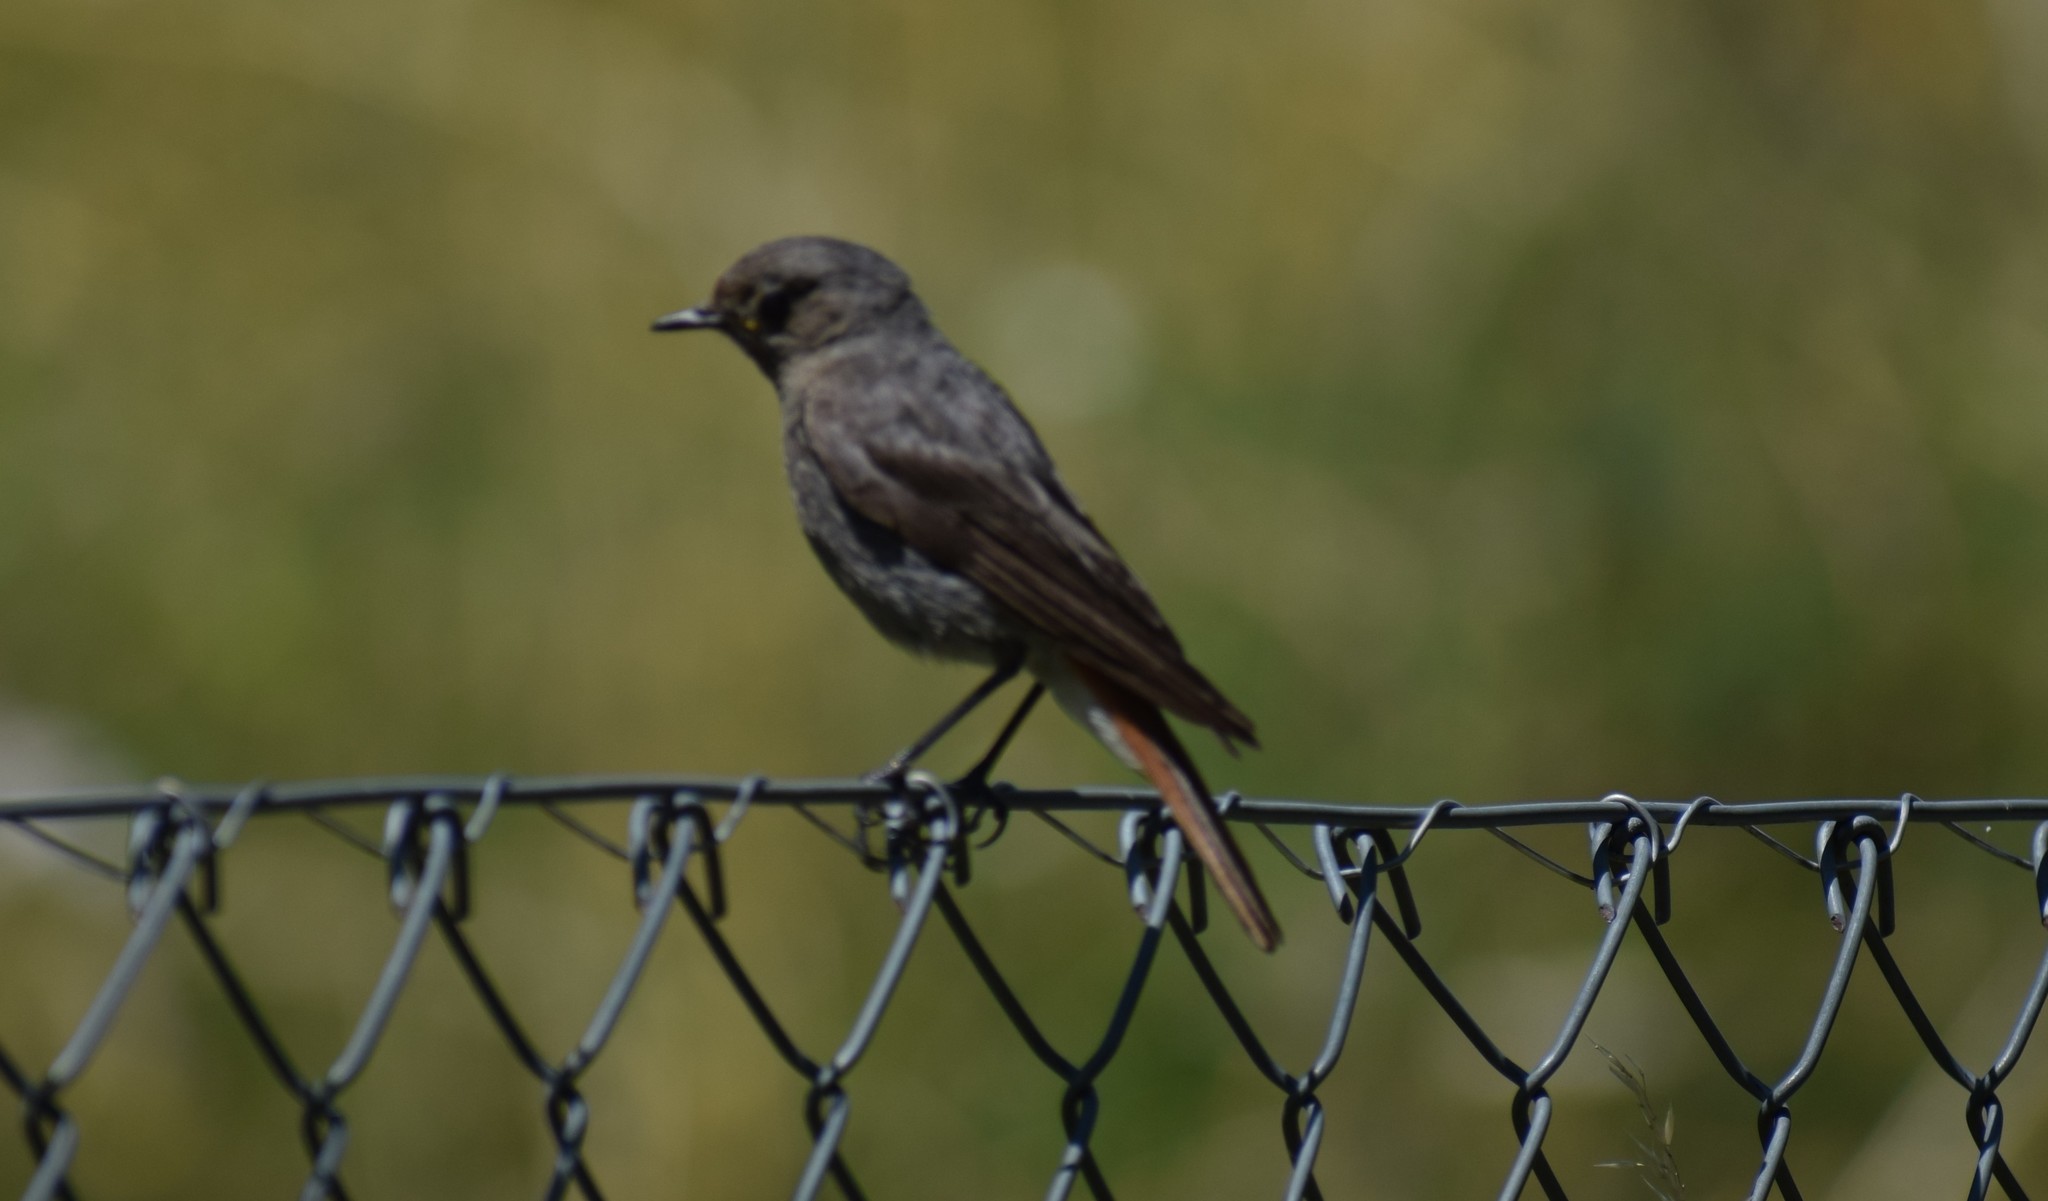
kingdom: Animalia
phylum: Chordata
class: Aves
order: Passeriformes
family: Muscicapidae
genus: Phoenicurus
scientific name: Phoenicurus ochruros
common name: Black redstart
